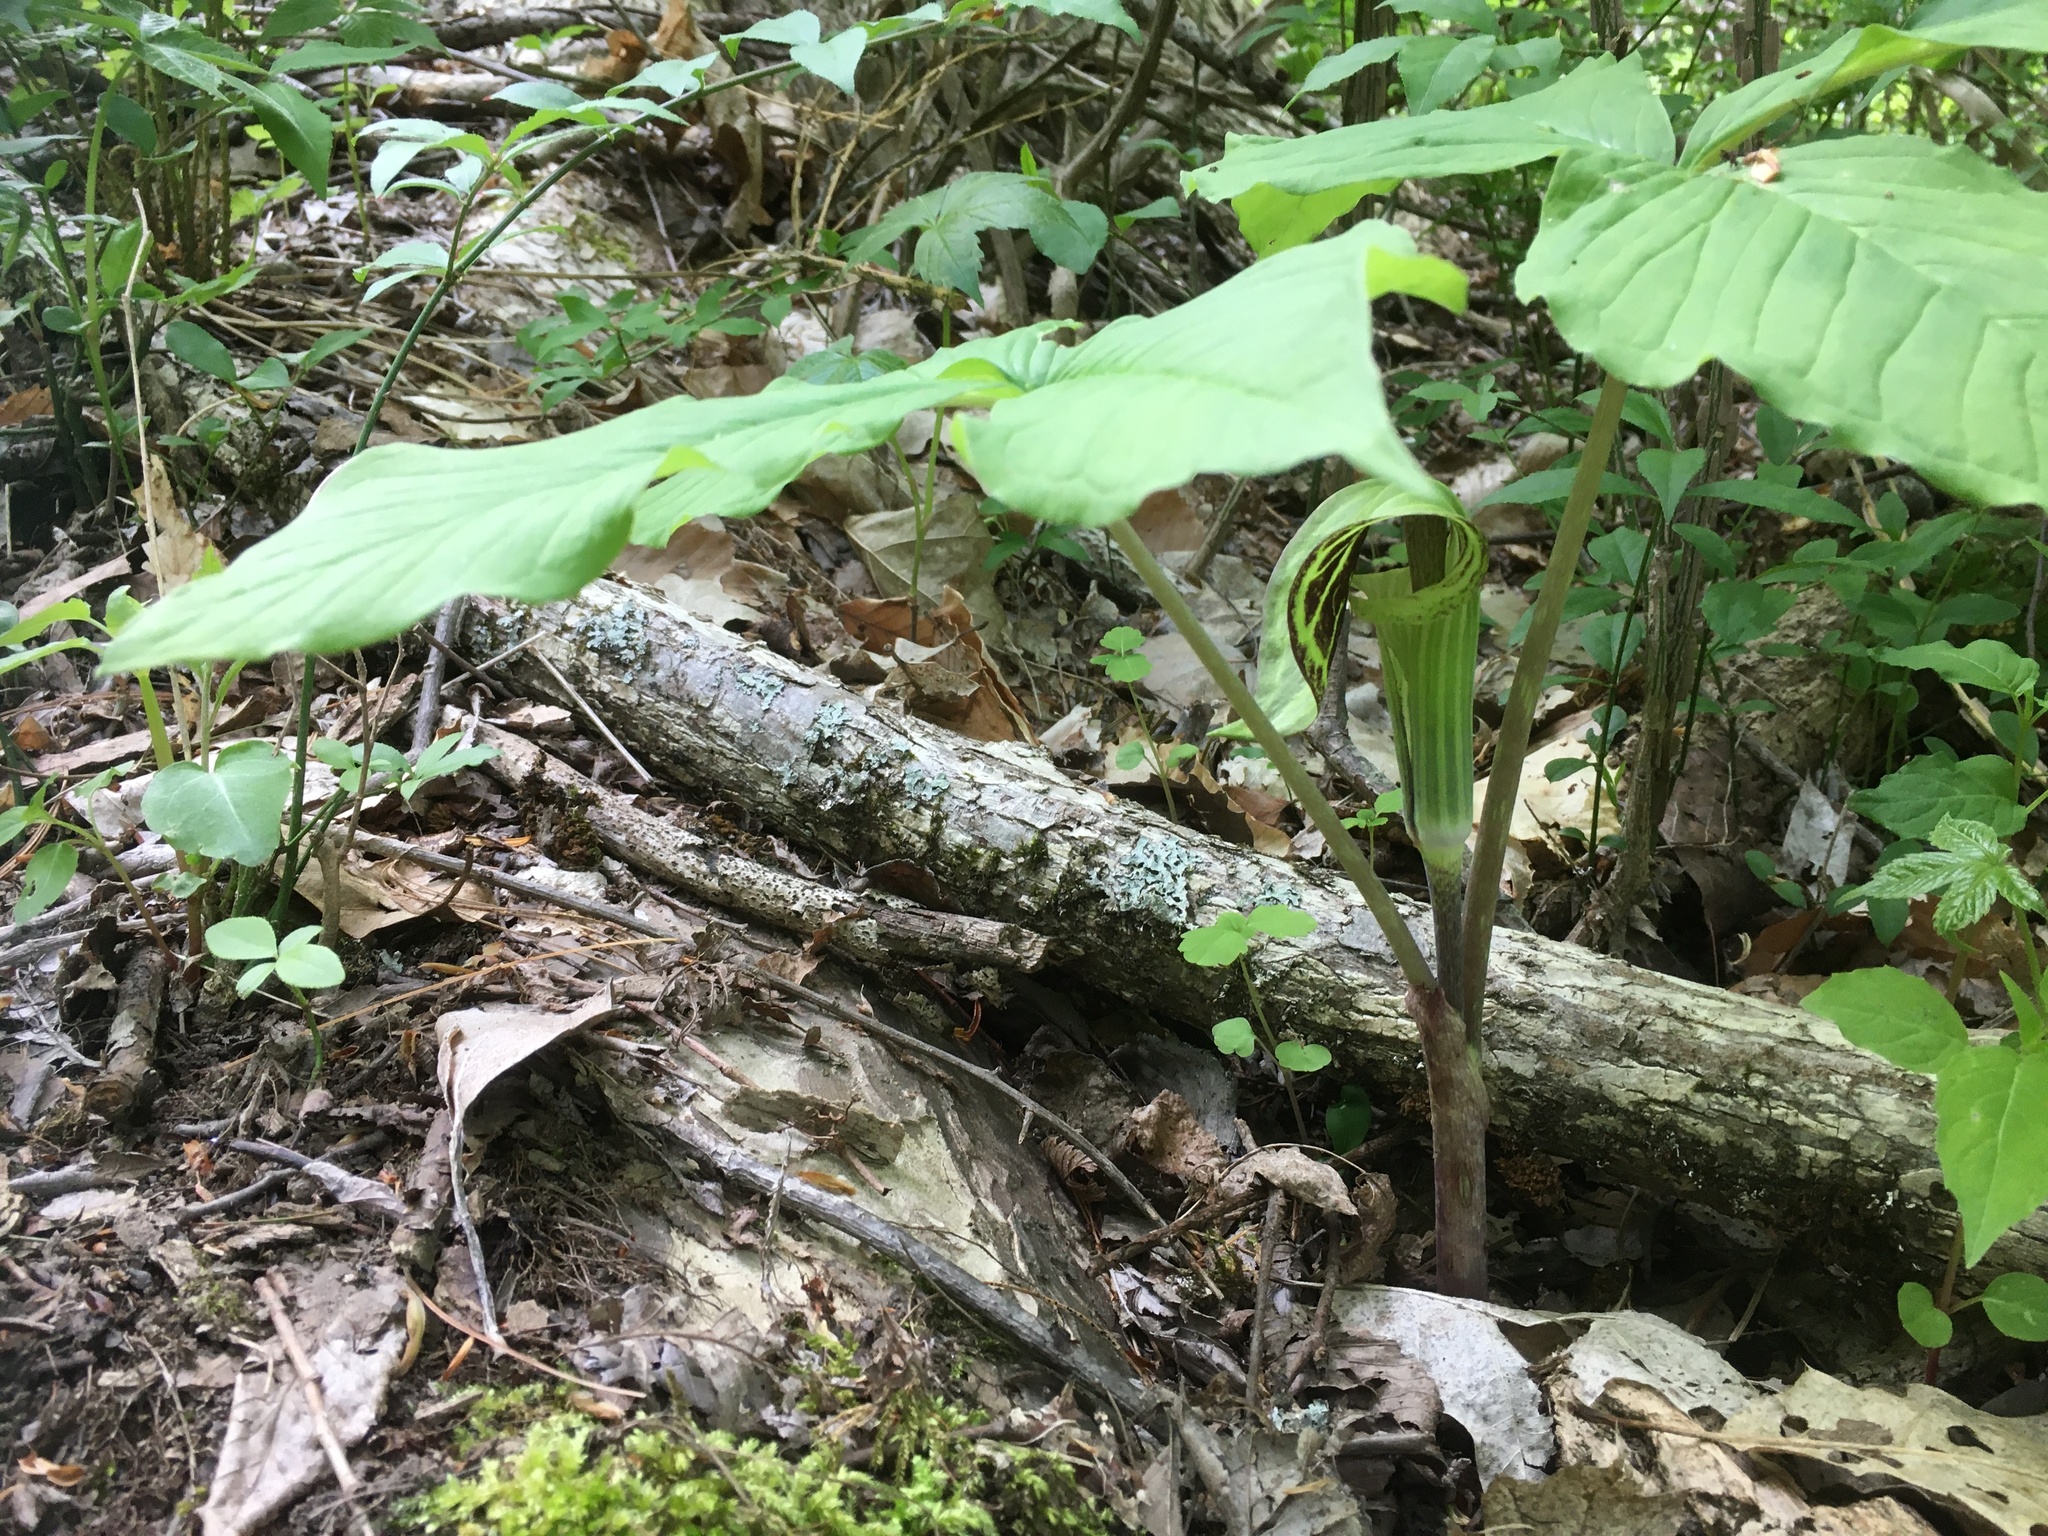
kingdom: Plantae
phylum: Tracheophyta
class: Liliopsida
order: Alismatales
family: Araceae
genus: Arisaema
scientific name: Arisaema triphyllum
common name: Jack-in-the-pulpit
